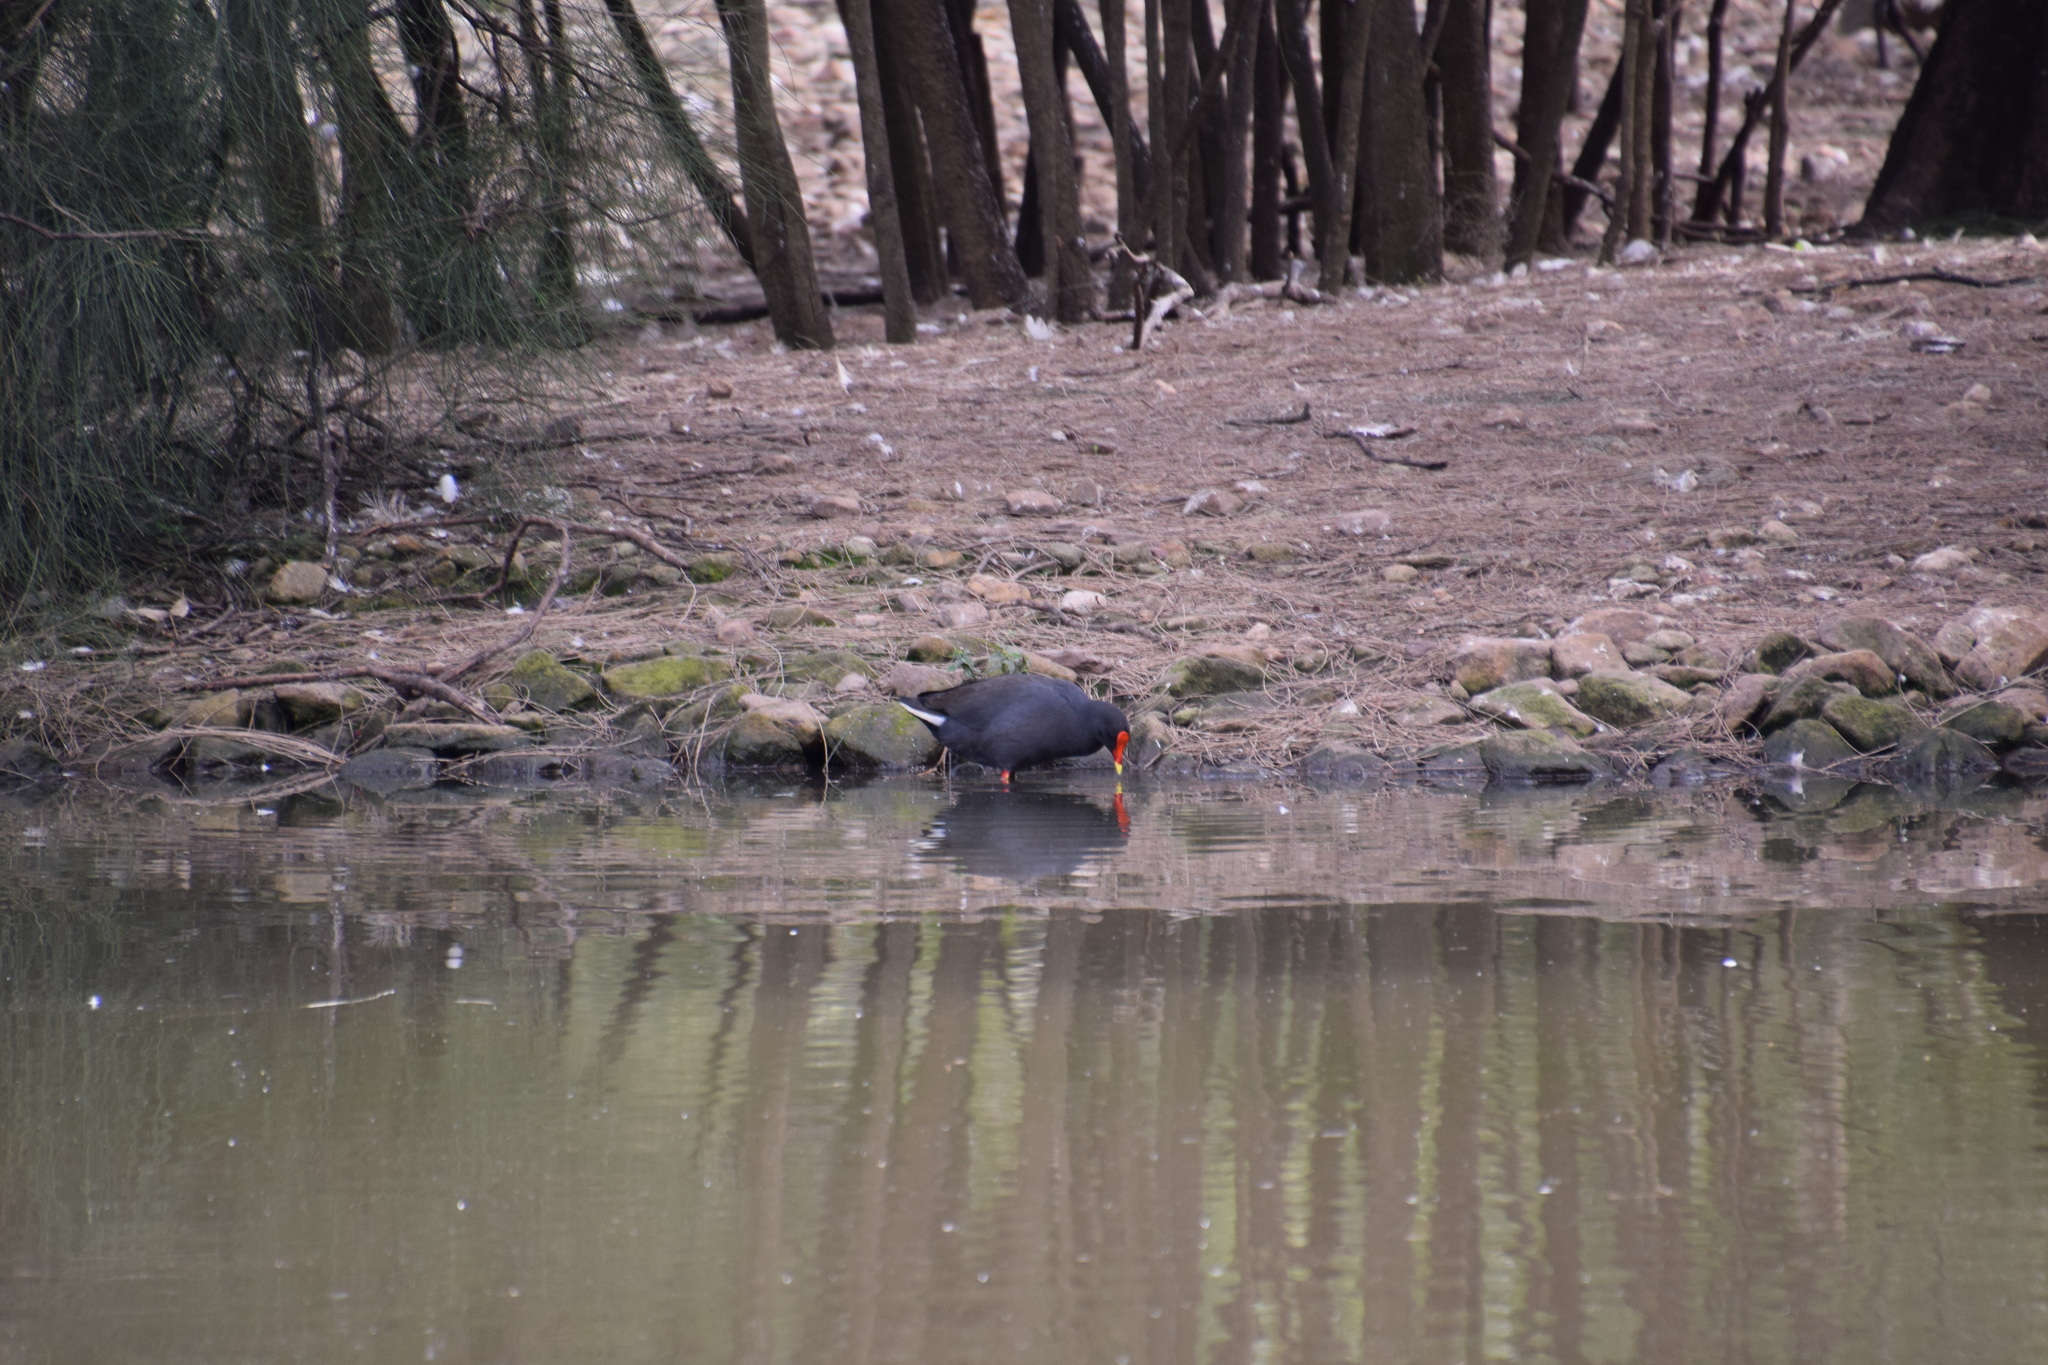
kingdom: Animalia
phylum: Chordata
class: Aves
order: Gruiformes
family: Rallidae
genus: Gallinula
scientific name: Gallinula tenebrosa
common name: Dusky moorhen
